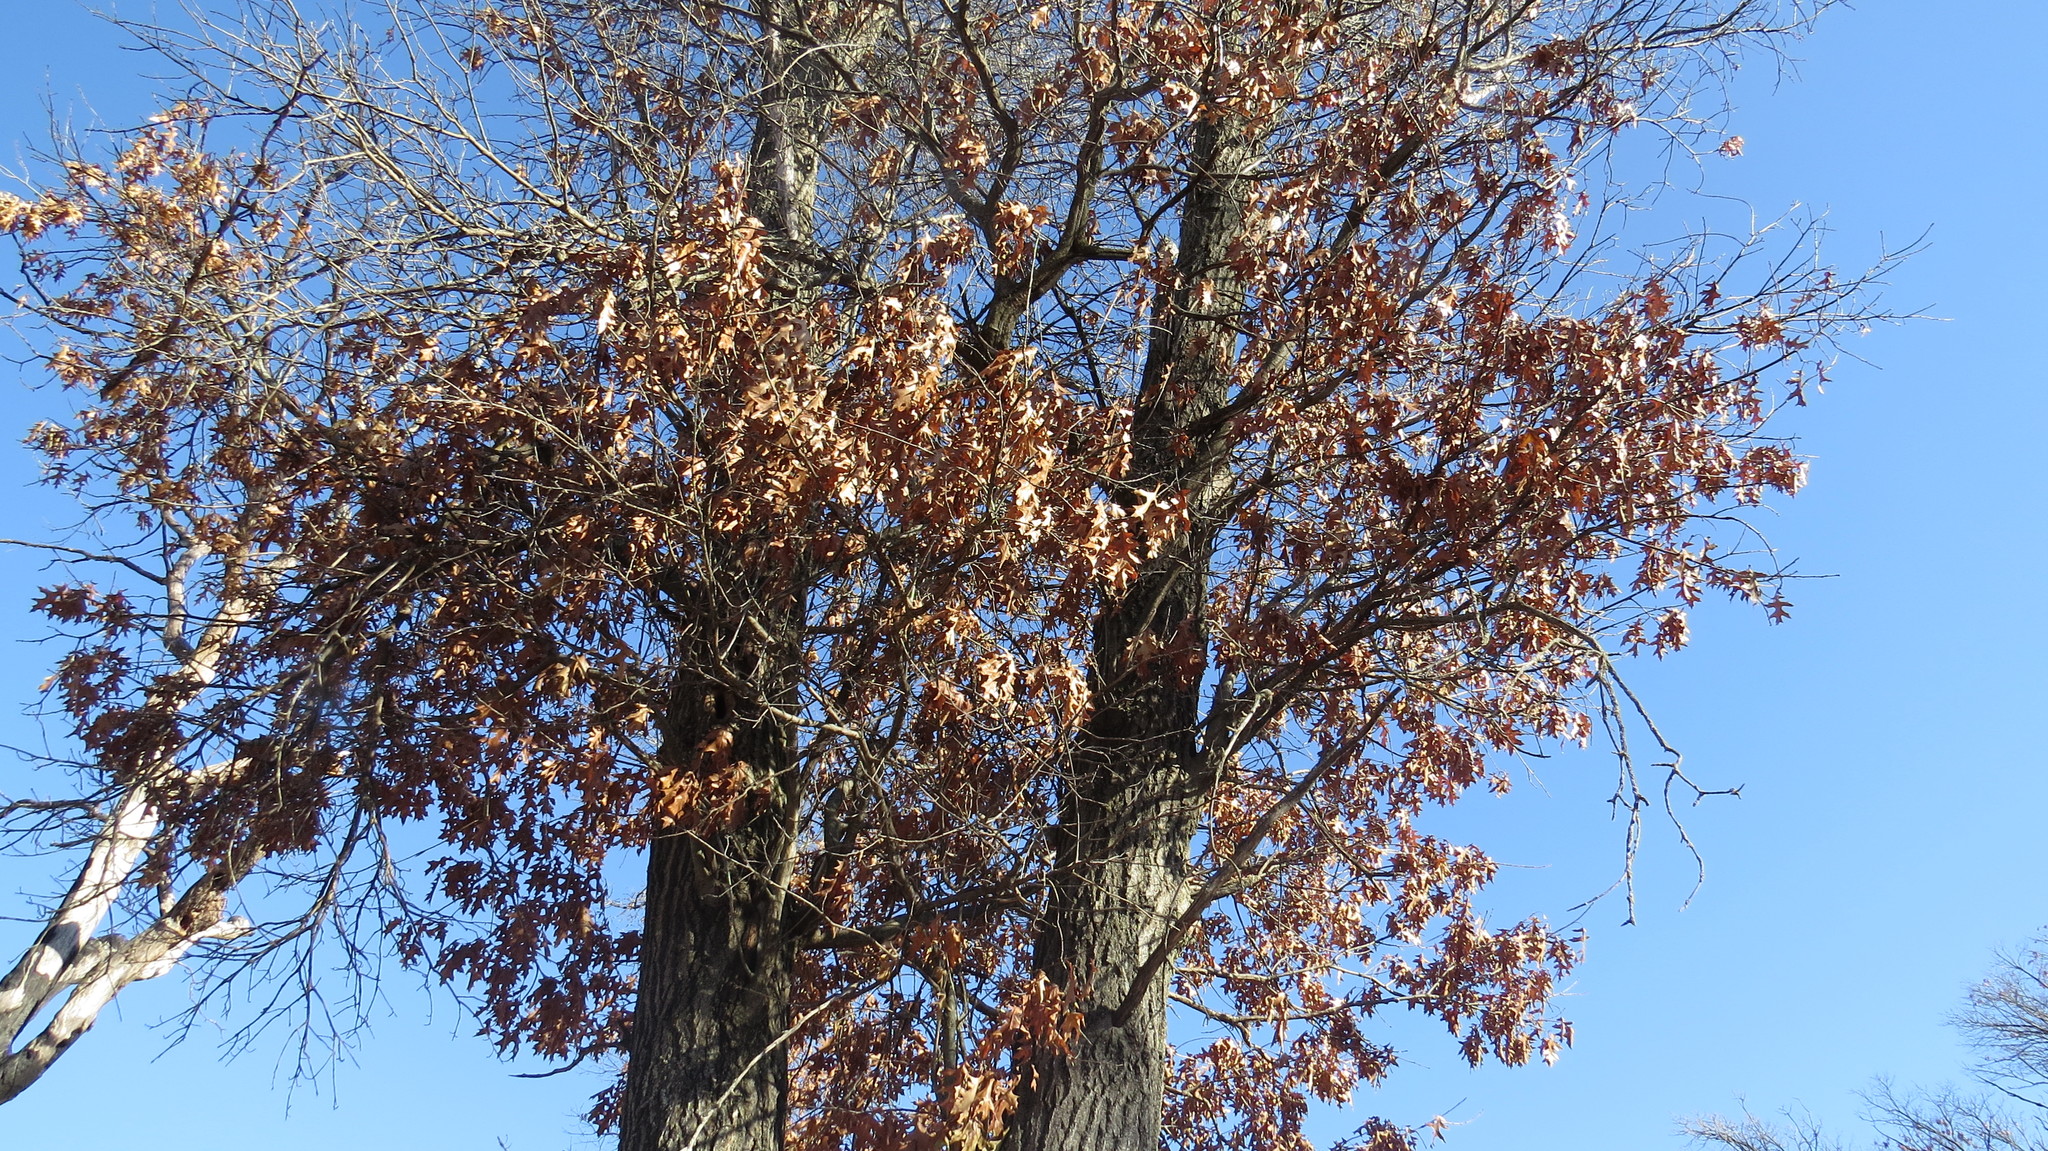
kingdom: Plantae
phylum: Tracheophyta
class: Magnoliopsida
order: Fagales
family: Fagaceae
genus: Quercus
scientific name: Quercus ellipsoidalis
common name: Hill's oak
